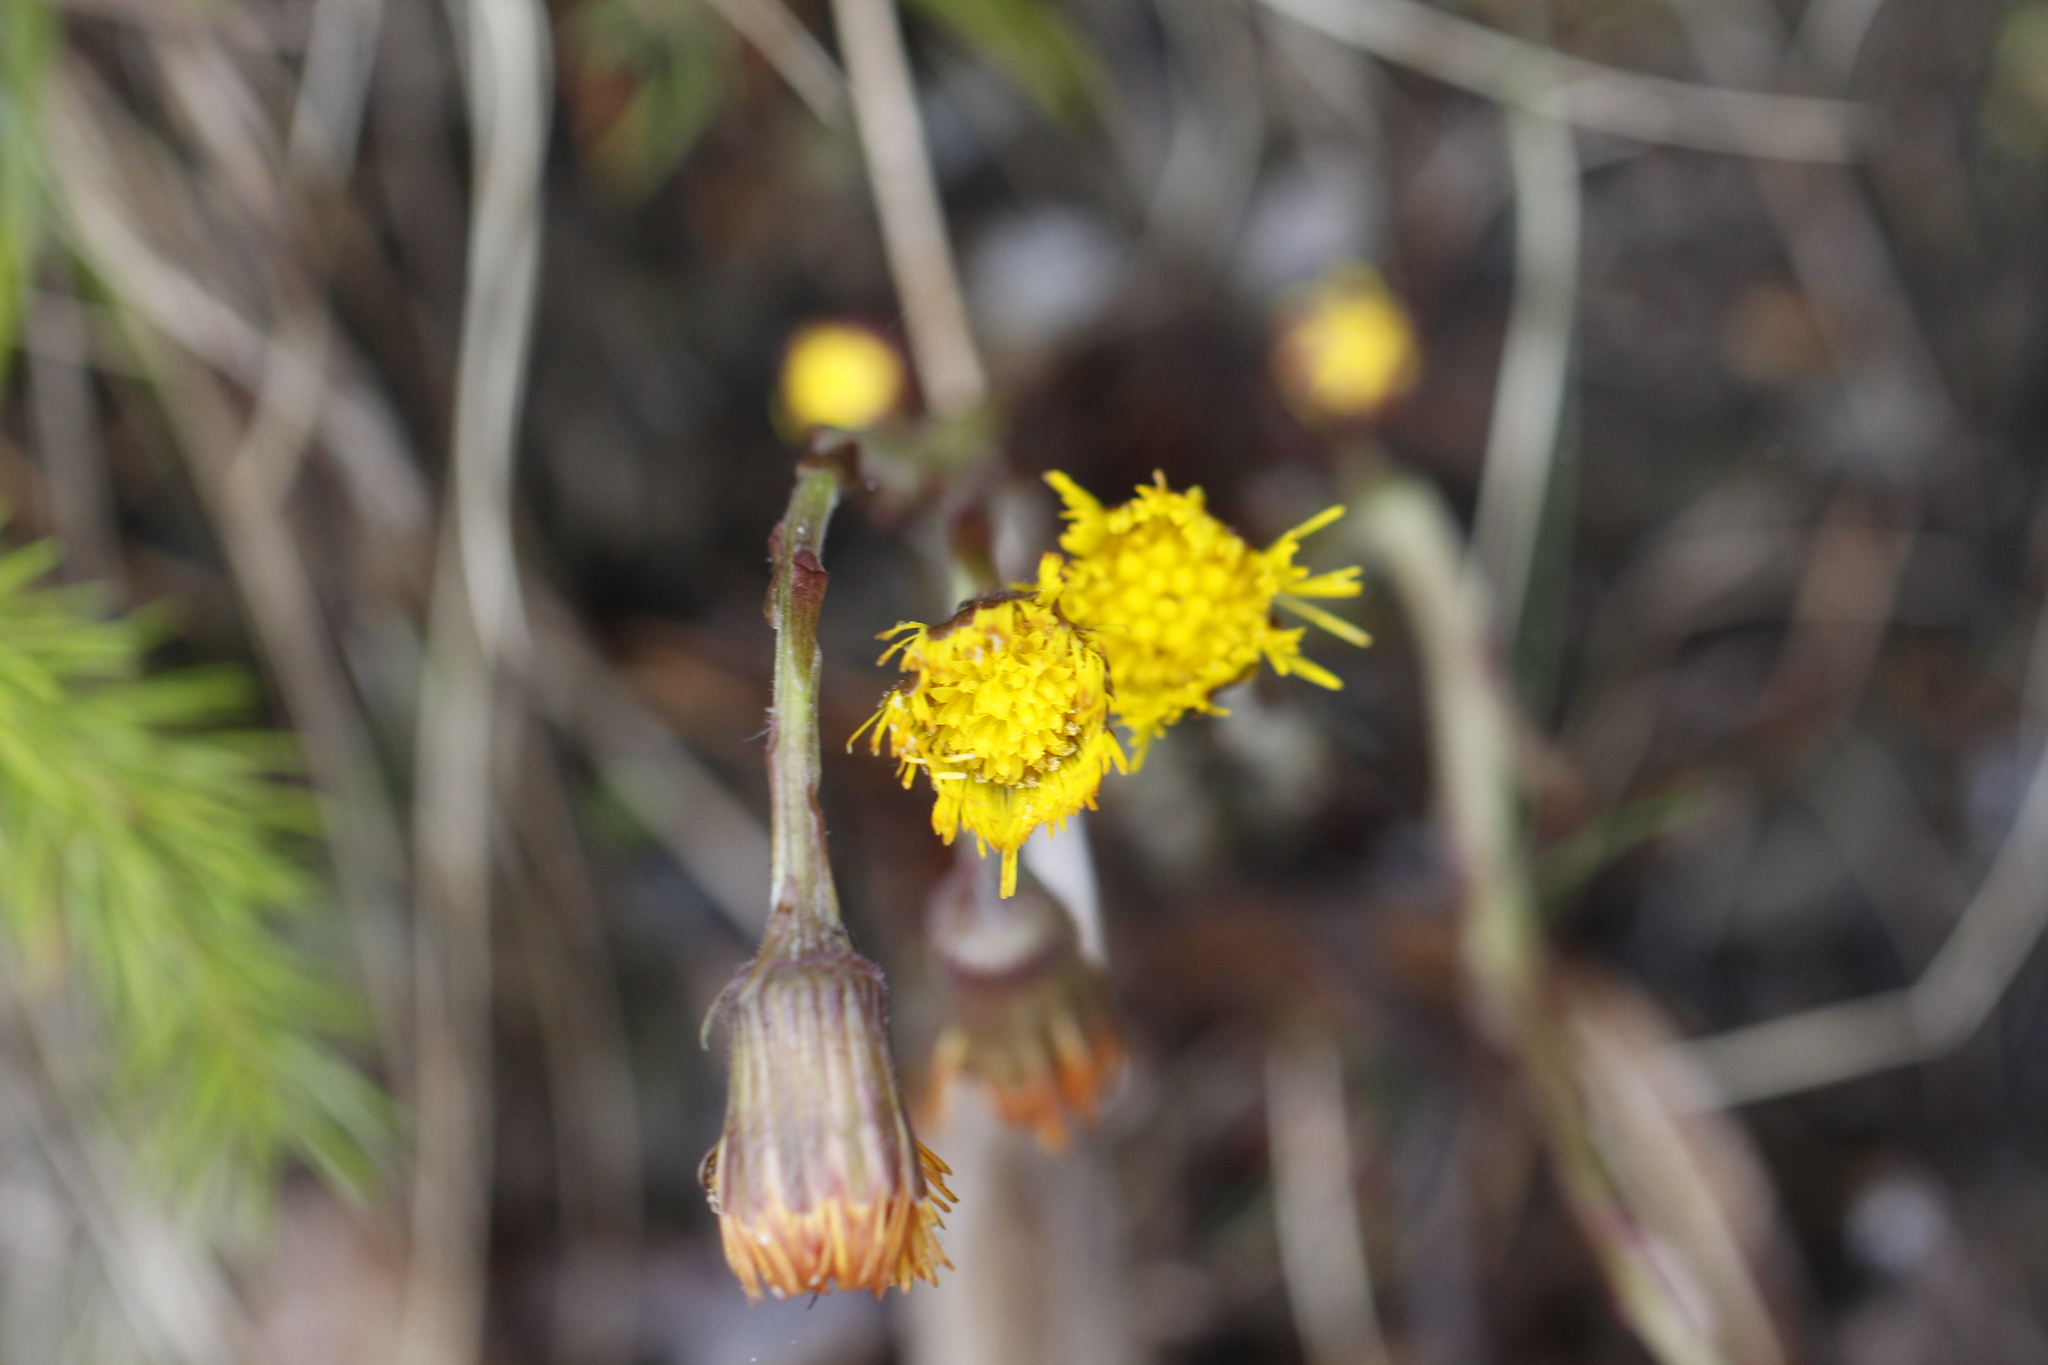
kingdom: Plantae
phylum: Tracheophyta
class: Magnoliopsida
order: Asterales
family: Asteraceae
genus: Tussilago
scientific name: Tussilago farfara
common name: Coltsfoot
